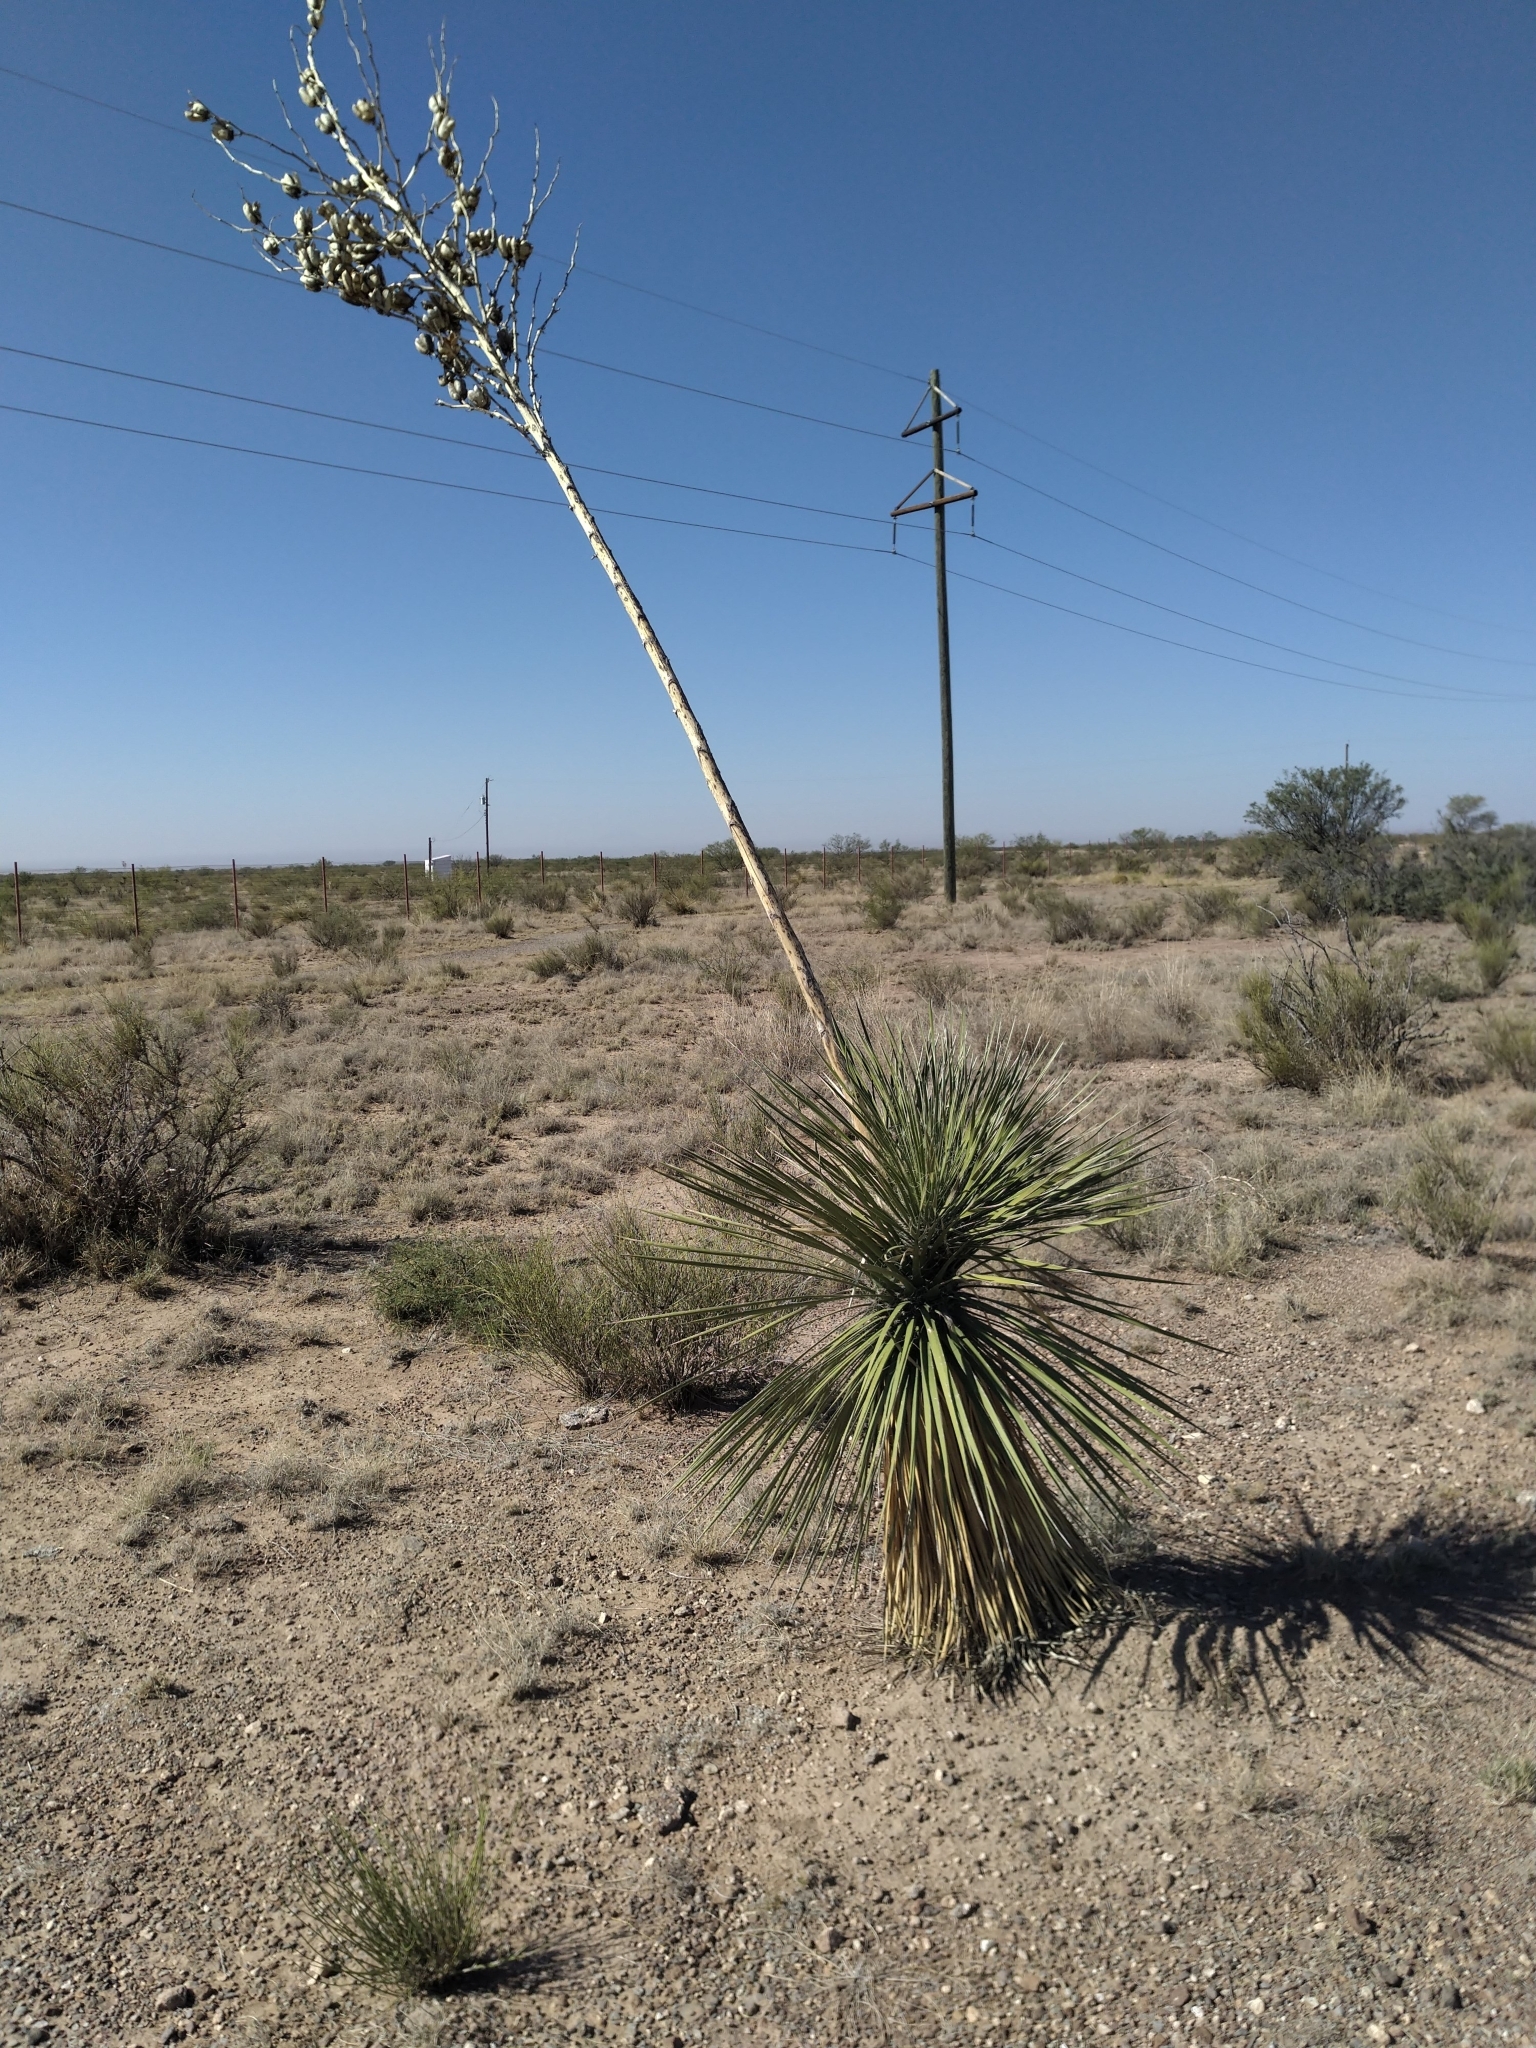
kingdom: Plantae
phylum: Tracheophyta
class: Liliopsida
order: Asparagales
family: Asparagaceae
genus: Yucca
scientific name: Yucca elata
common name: Palmella
